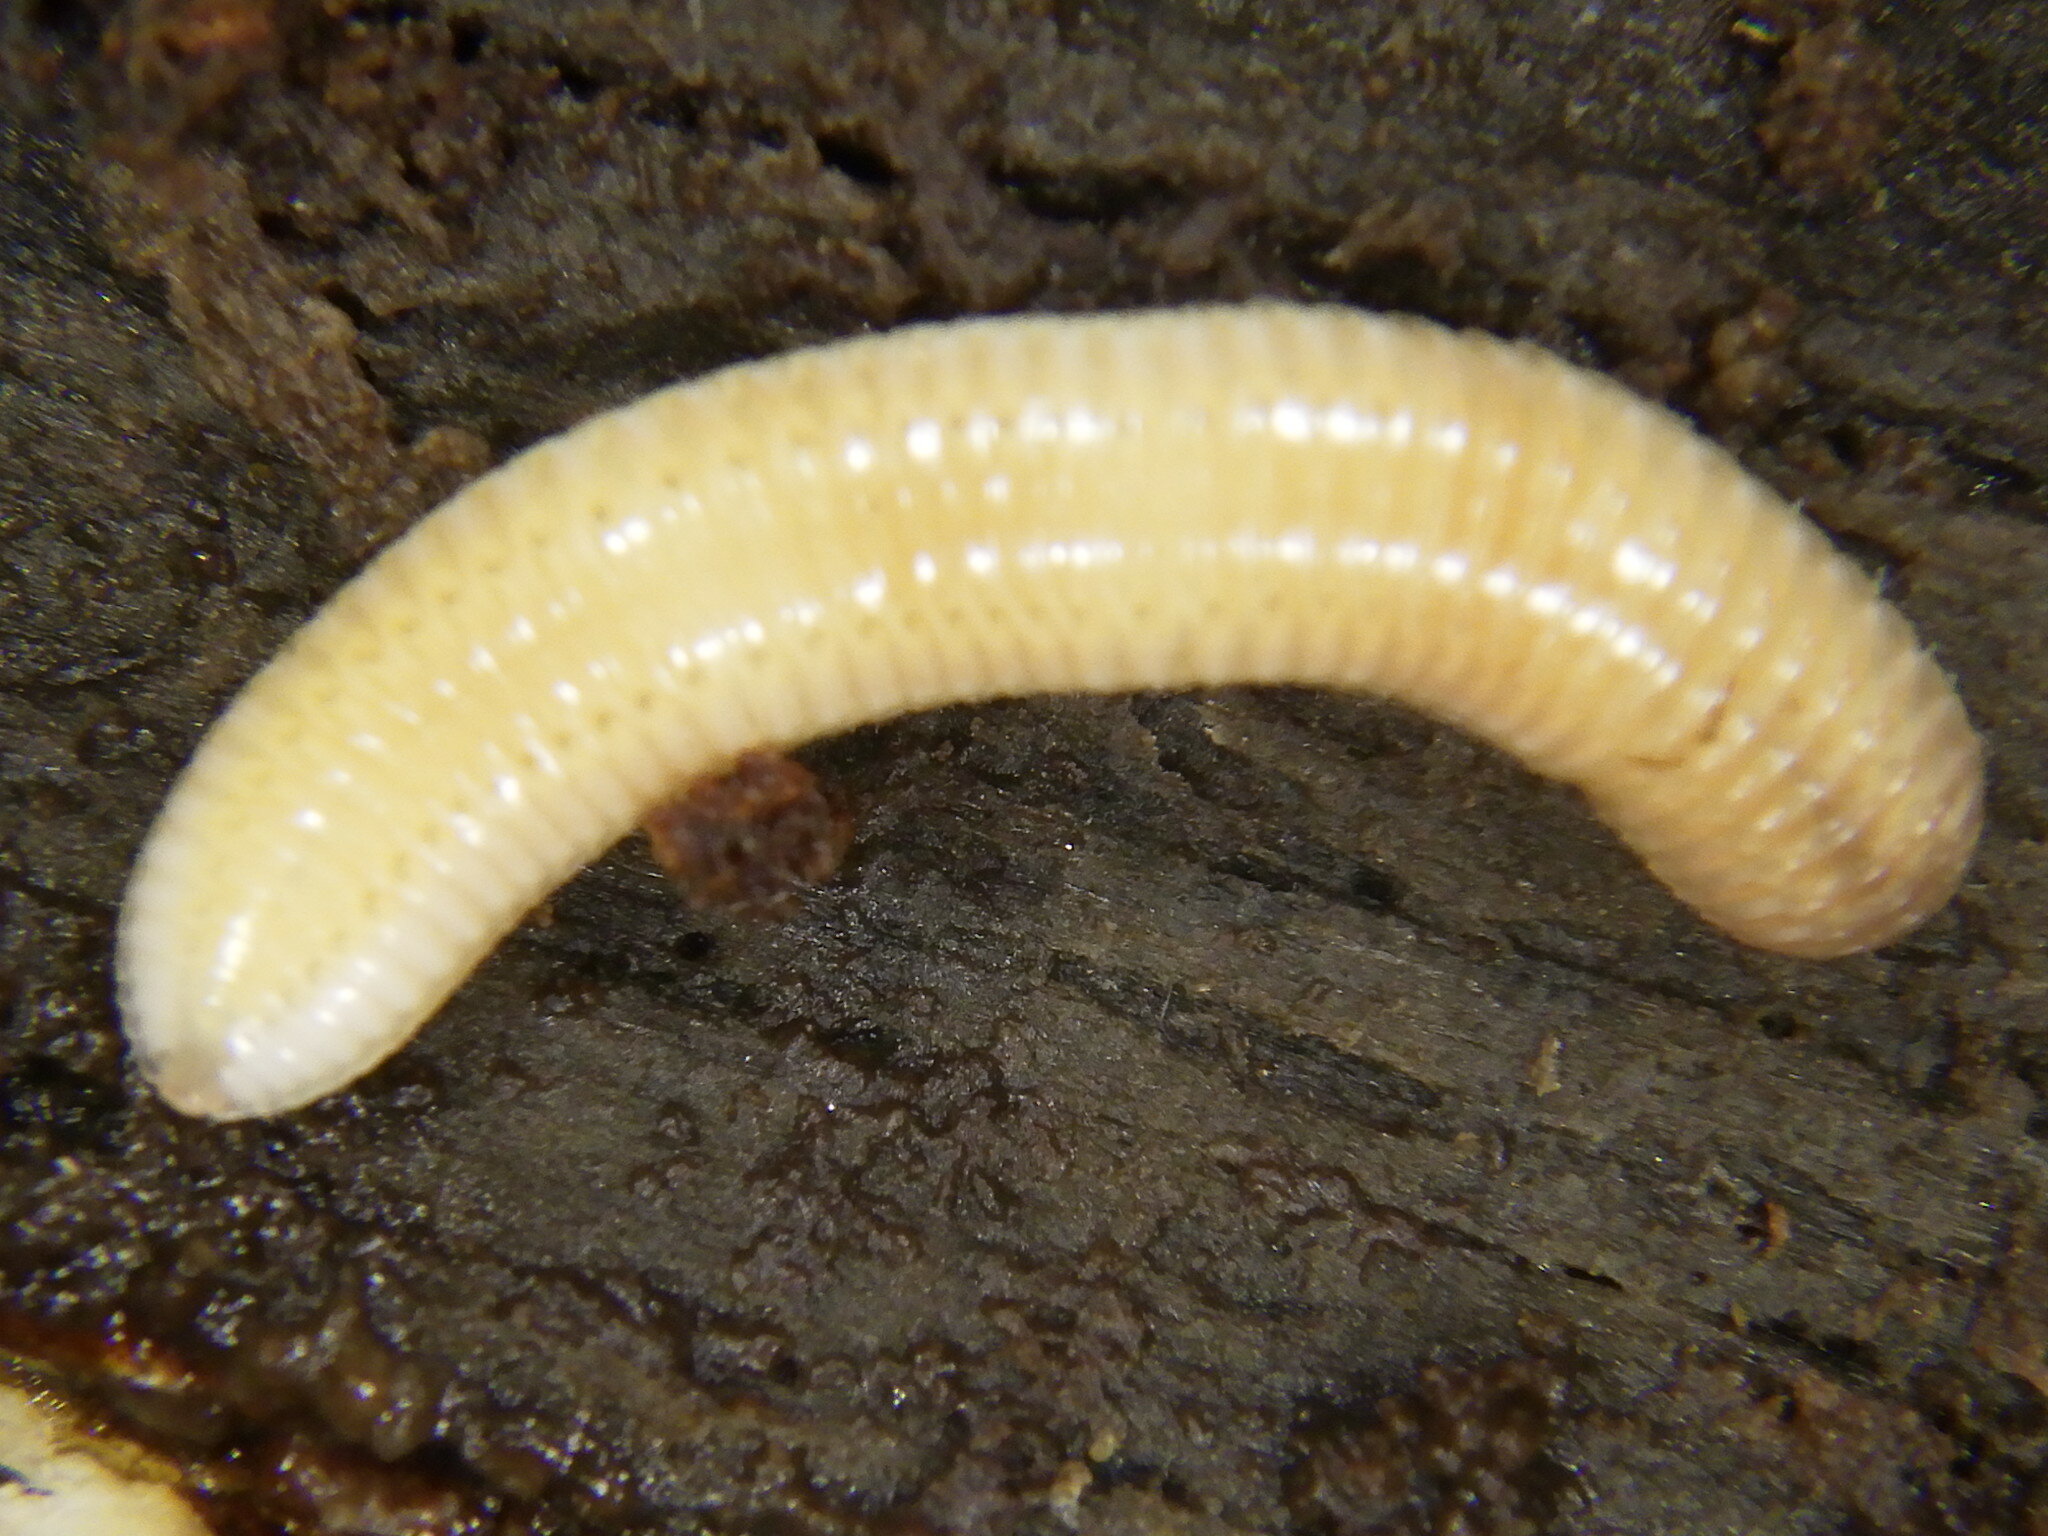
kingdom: Animalia
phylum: Arthropoda
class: Diplopoda
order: Polyzoniida
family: Polyzoniidae
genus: Petaserpes
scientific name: Petaserpes
